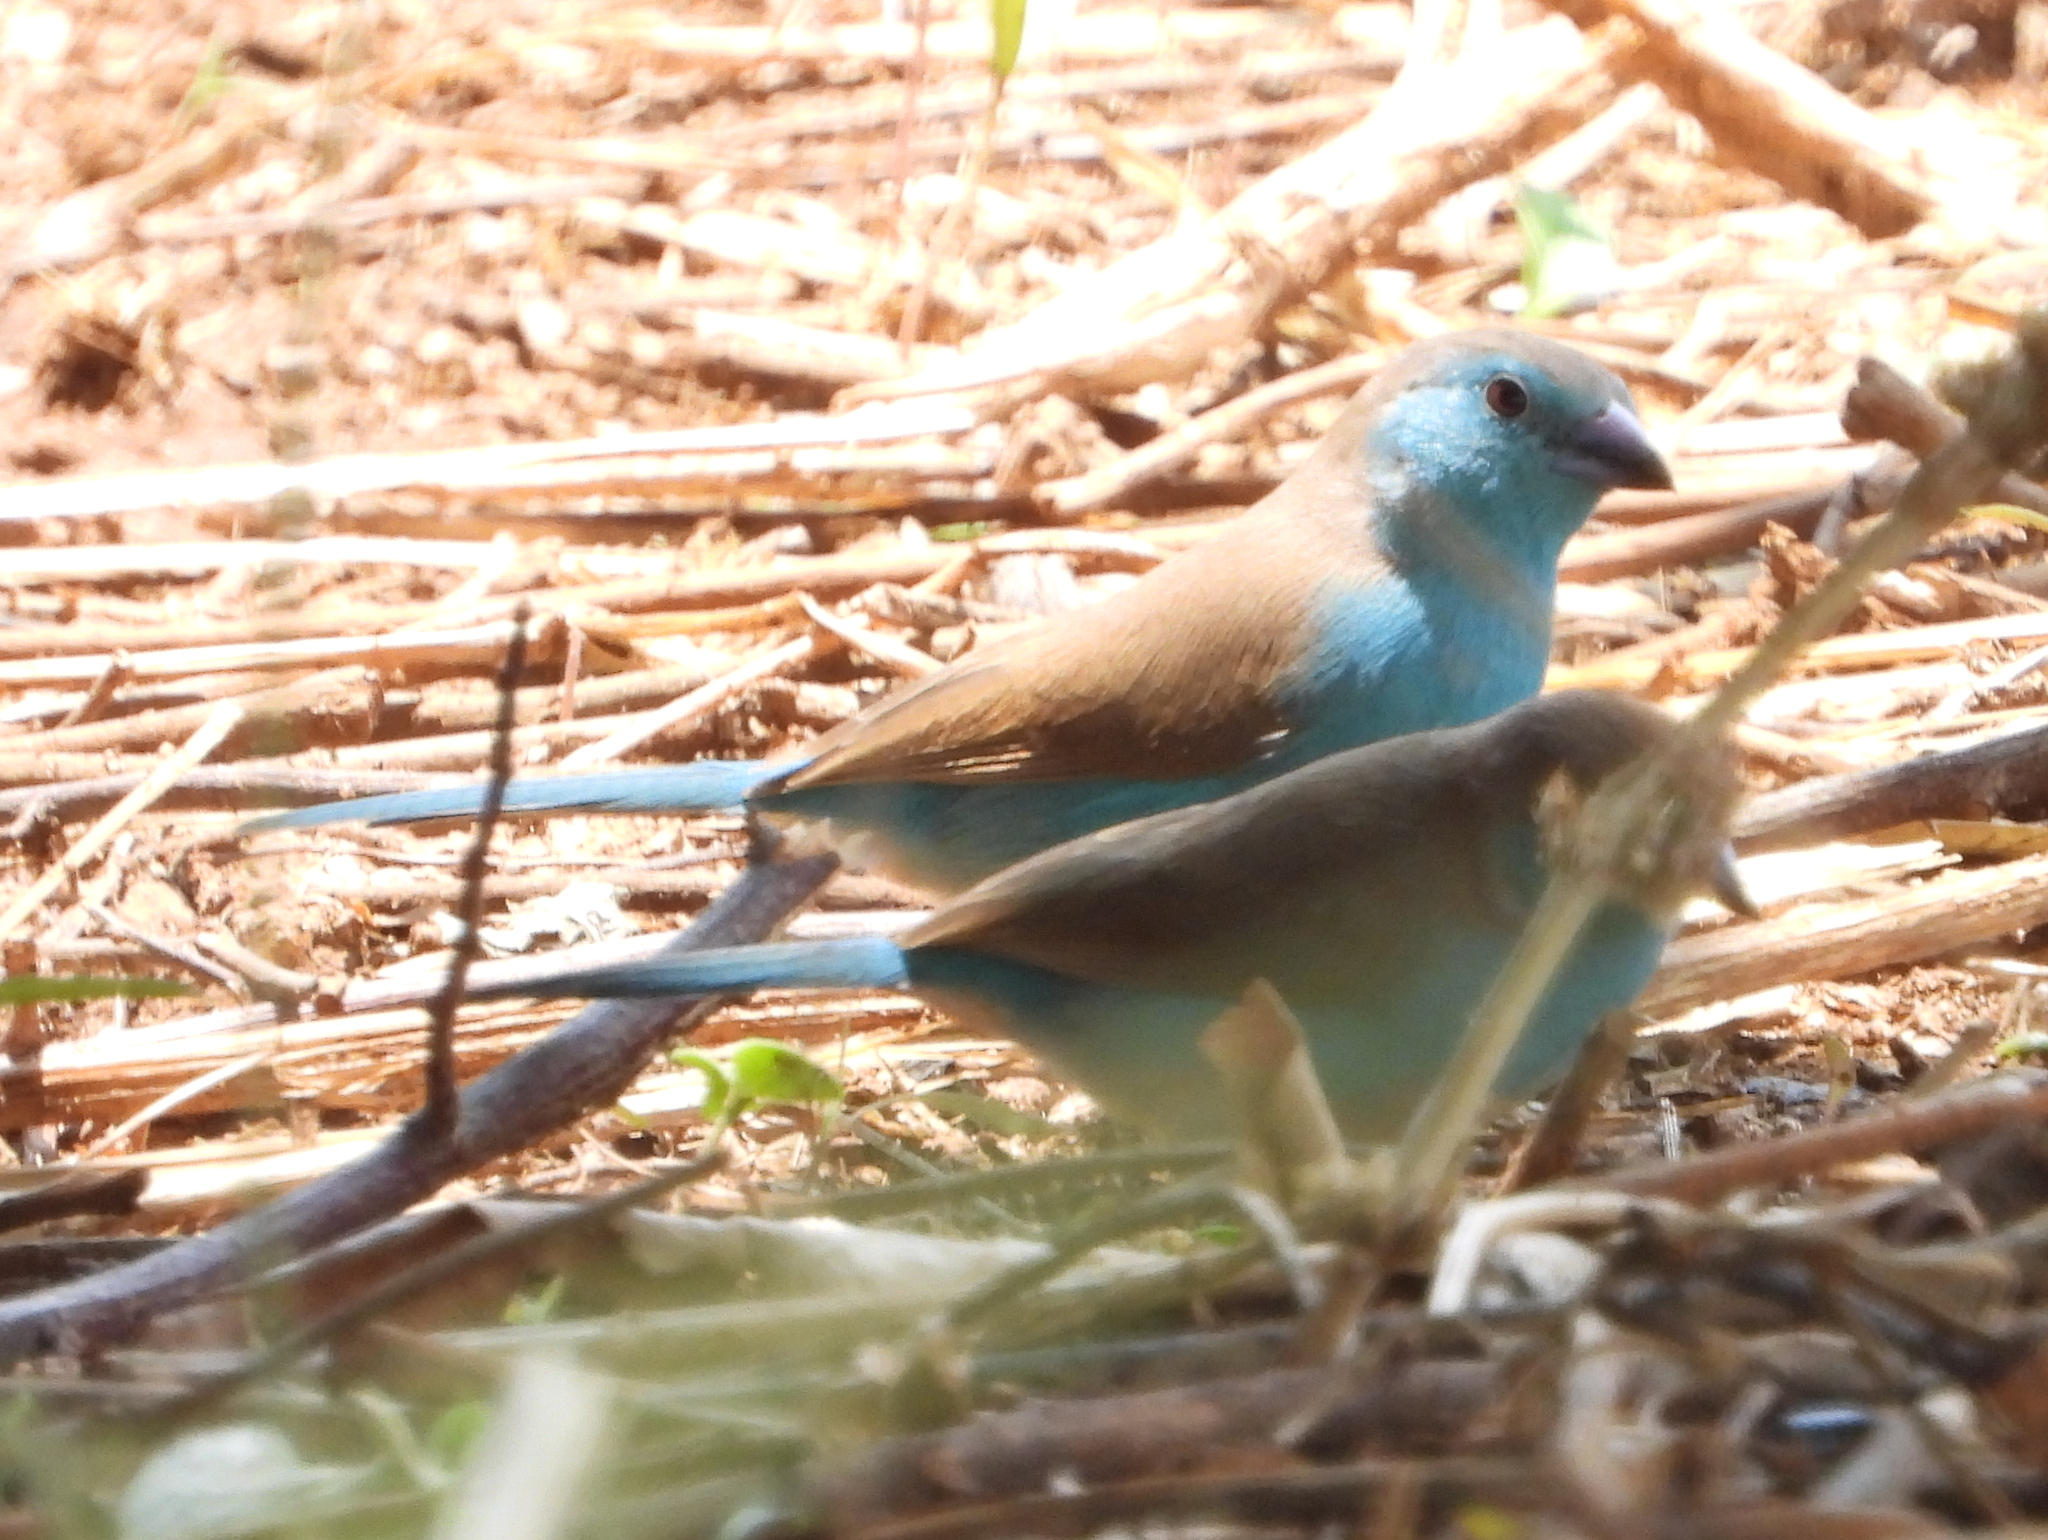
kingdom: Animalia
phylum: Chordata
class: Aves
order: Passeriformes
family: Estrildidae
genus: Uraeginthus
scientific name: Uraeginthus angolensis
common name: Blue waxbill
